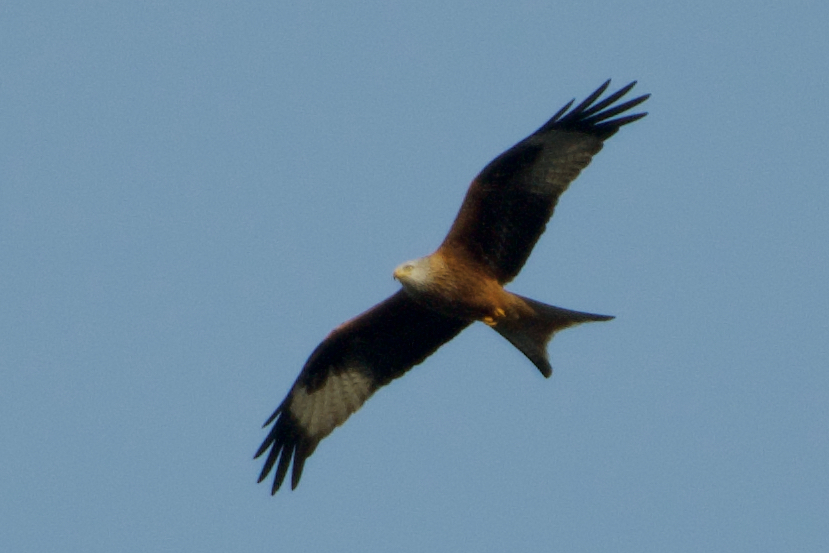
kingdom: Animalia
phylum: Chordata
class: Aves
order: Accipitriformes
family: Accipitridae
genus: Milvus
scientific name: Milvus milvus
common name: Red kite
